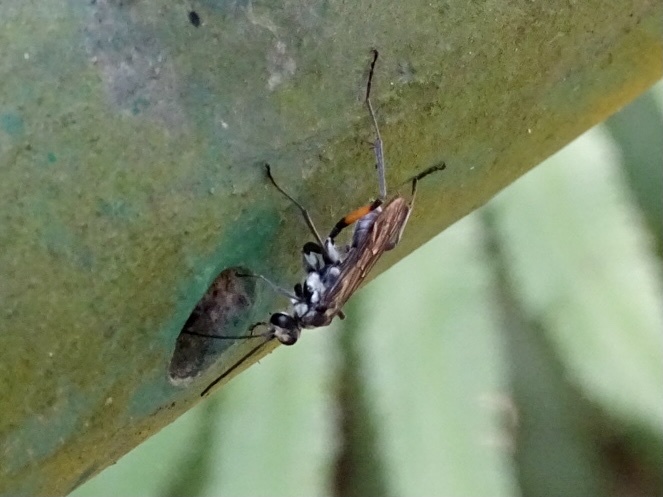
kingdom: Animalia
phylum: Arthropoda
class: Insecta
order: Hymenoptera
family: Pompilidae
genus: Paragenia
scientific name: Paragenia argentifrons
